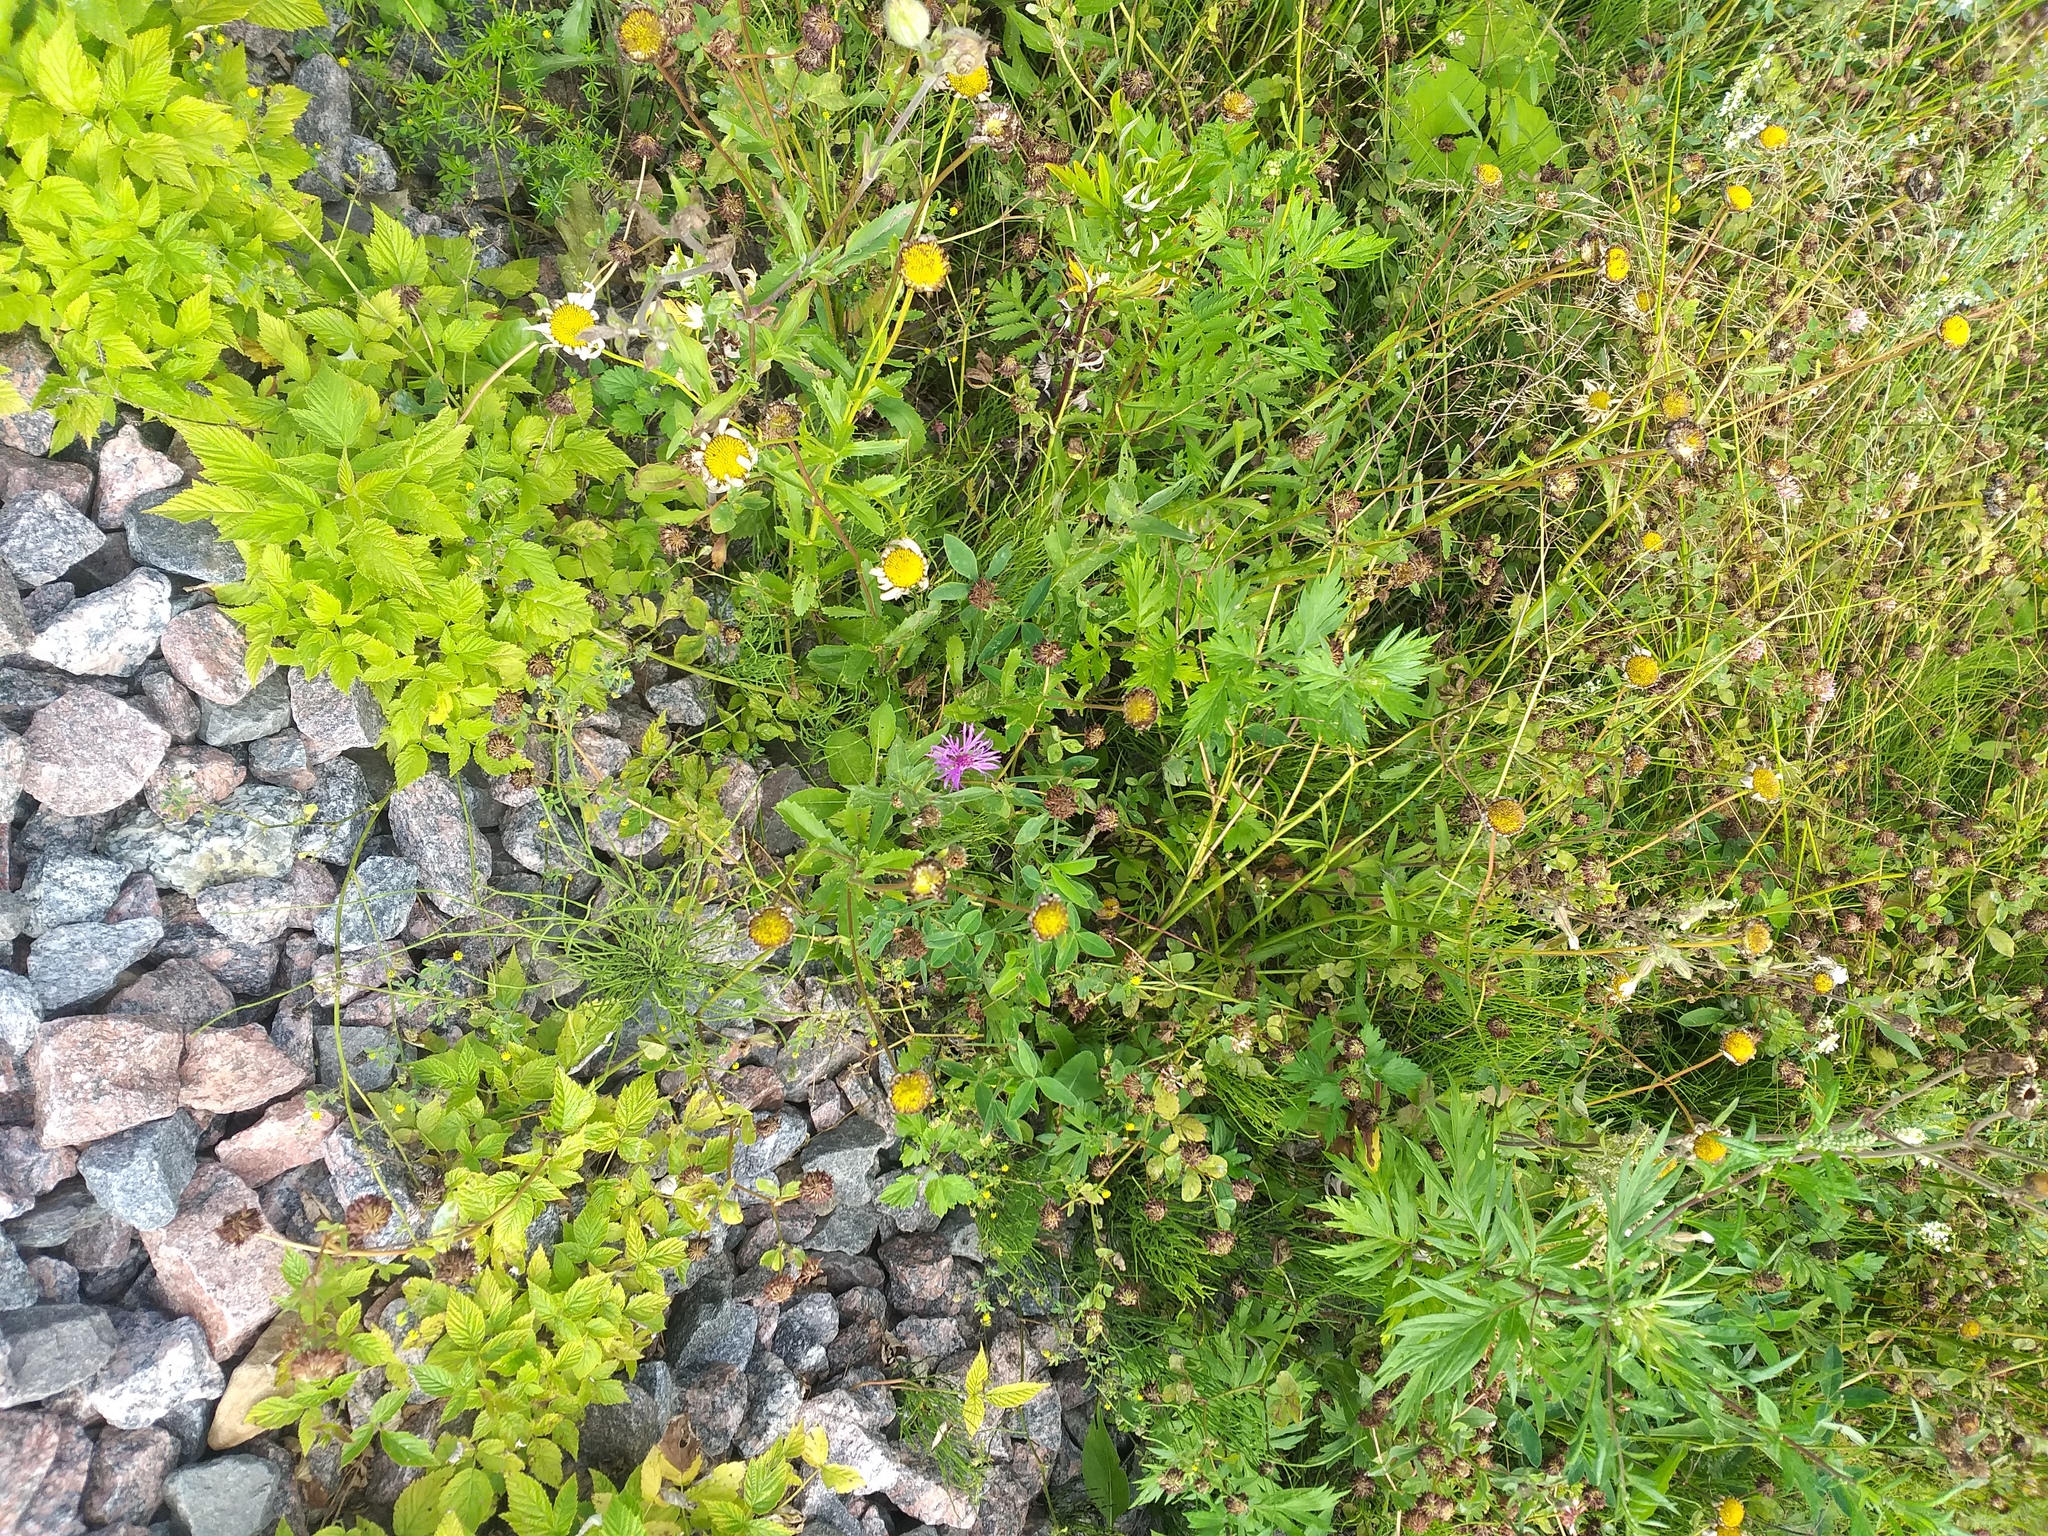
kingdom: Plantae
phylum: Tracheophyta
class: Magnoliopsida
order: Rosales
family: Rosaceae
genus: Rubus
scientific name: Rubus idaeus
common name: Raspberry
